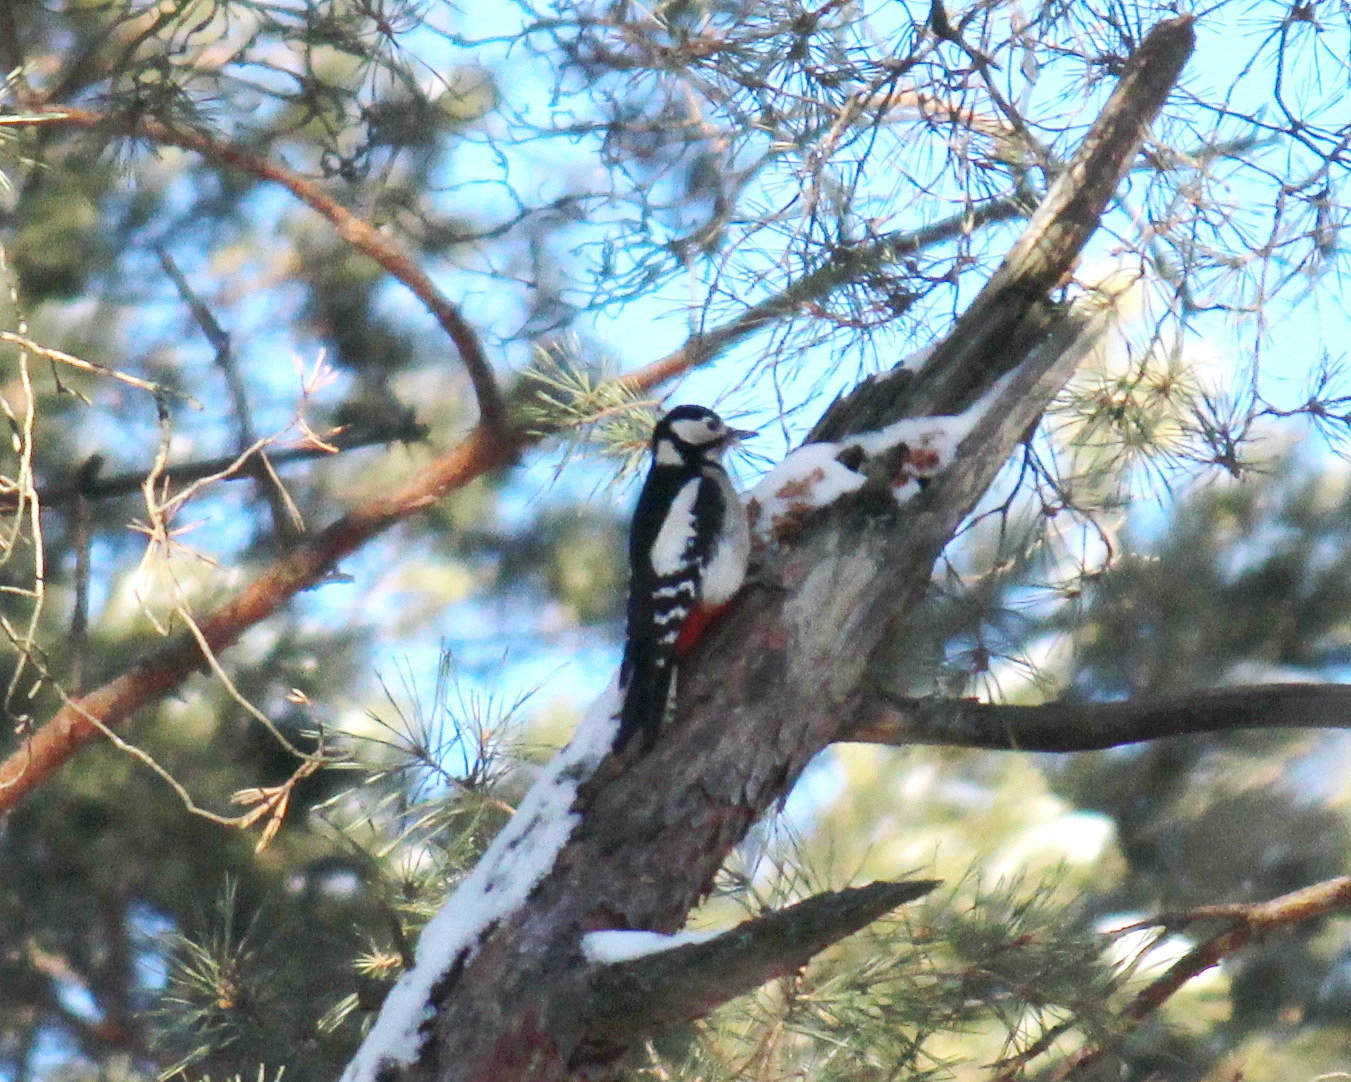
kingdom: Animalia
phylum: Chordata
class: Aves
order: Piciformes
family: Picidae
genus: Dendrocopos
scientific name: Dendrocopos major
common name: Great spotted woodpecker
